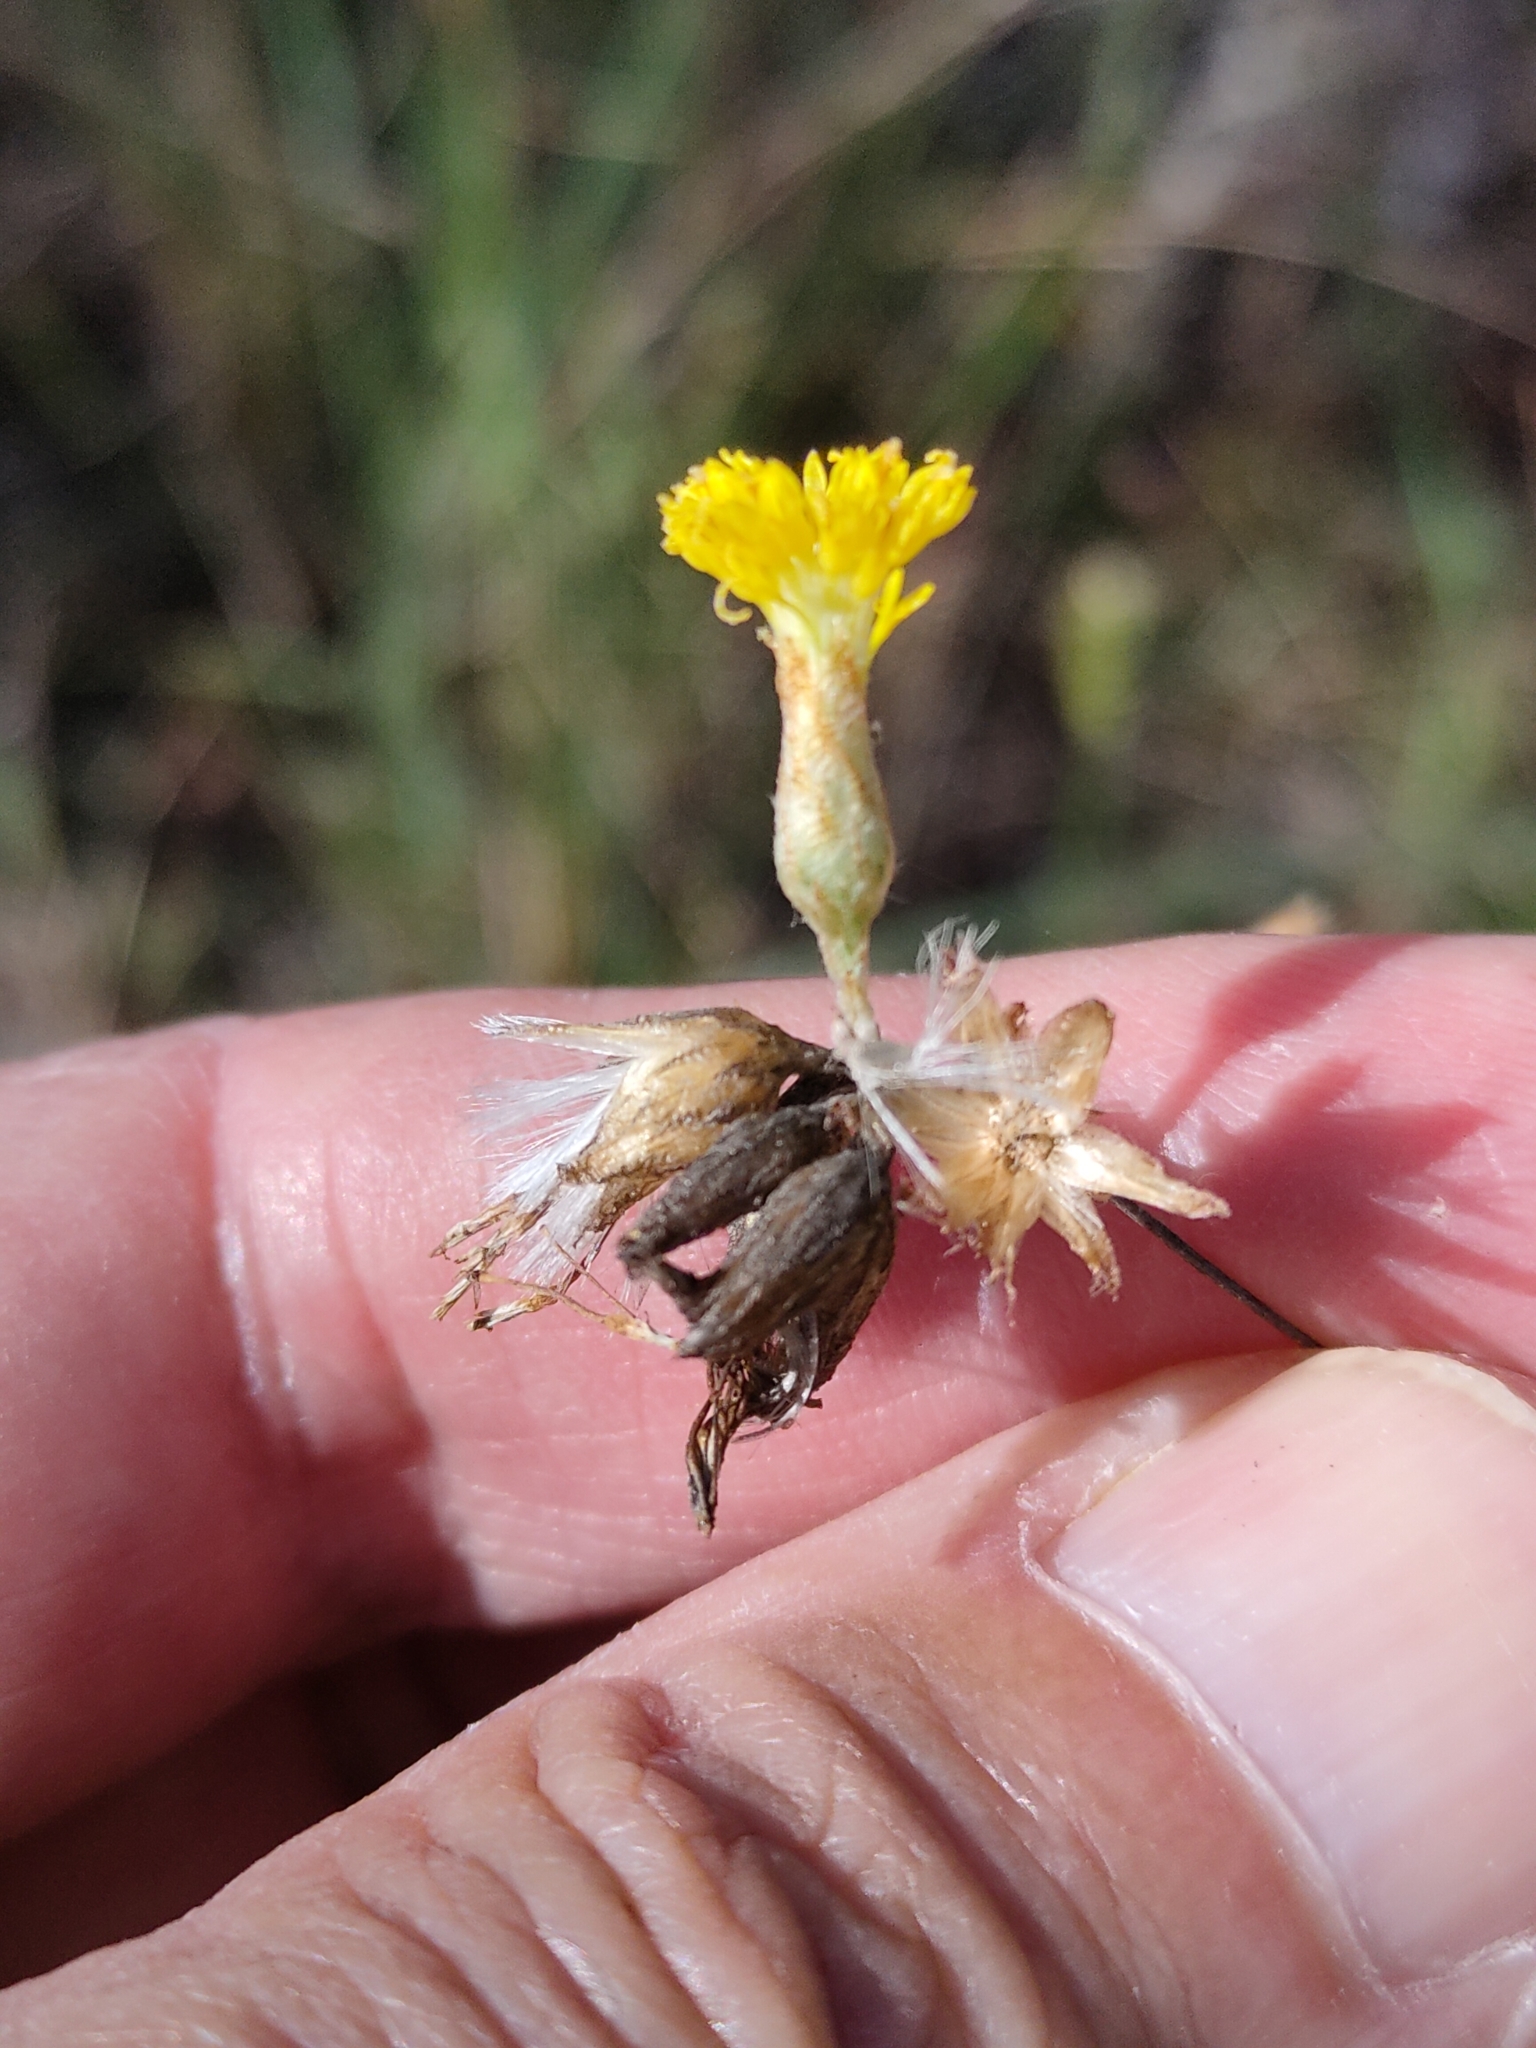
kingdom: Plantae
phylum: Tracheophyta
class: Magnoliopsida
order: Asterales
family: Asteraceae
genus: Podolepis
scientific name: Podolepis arachnoidea
